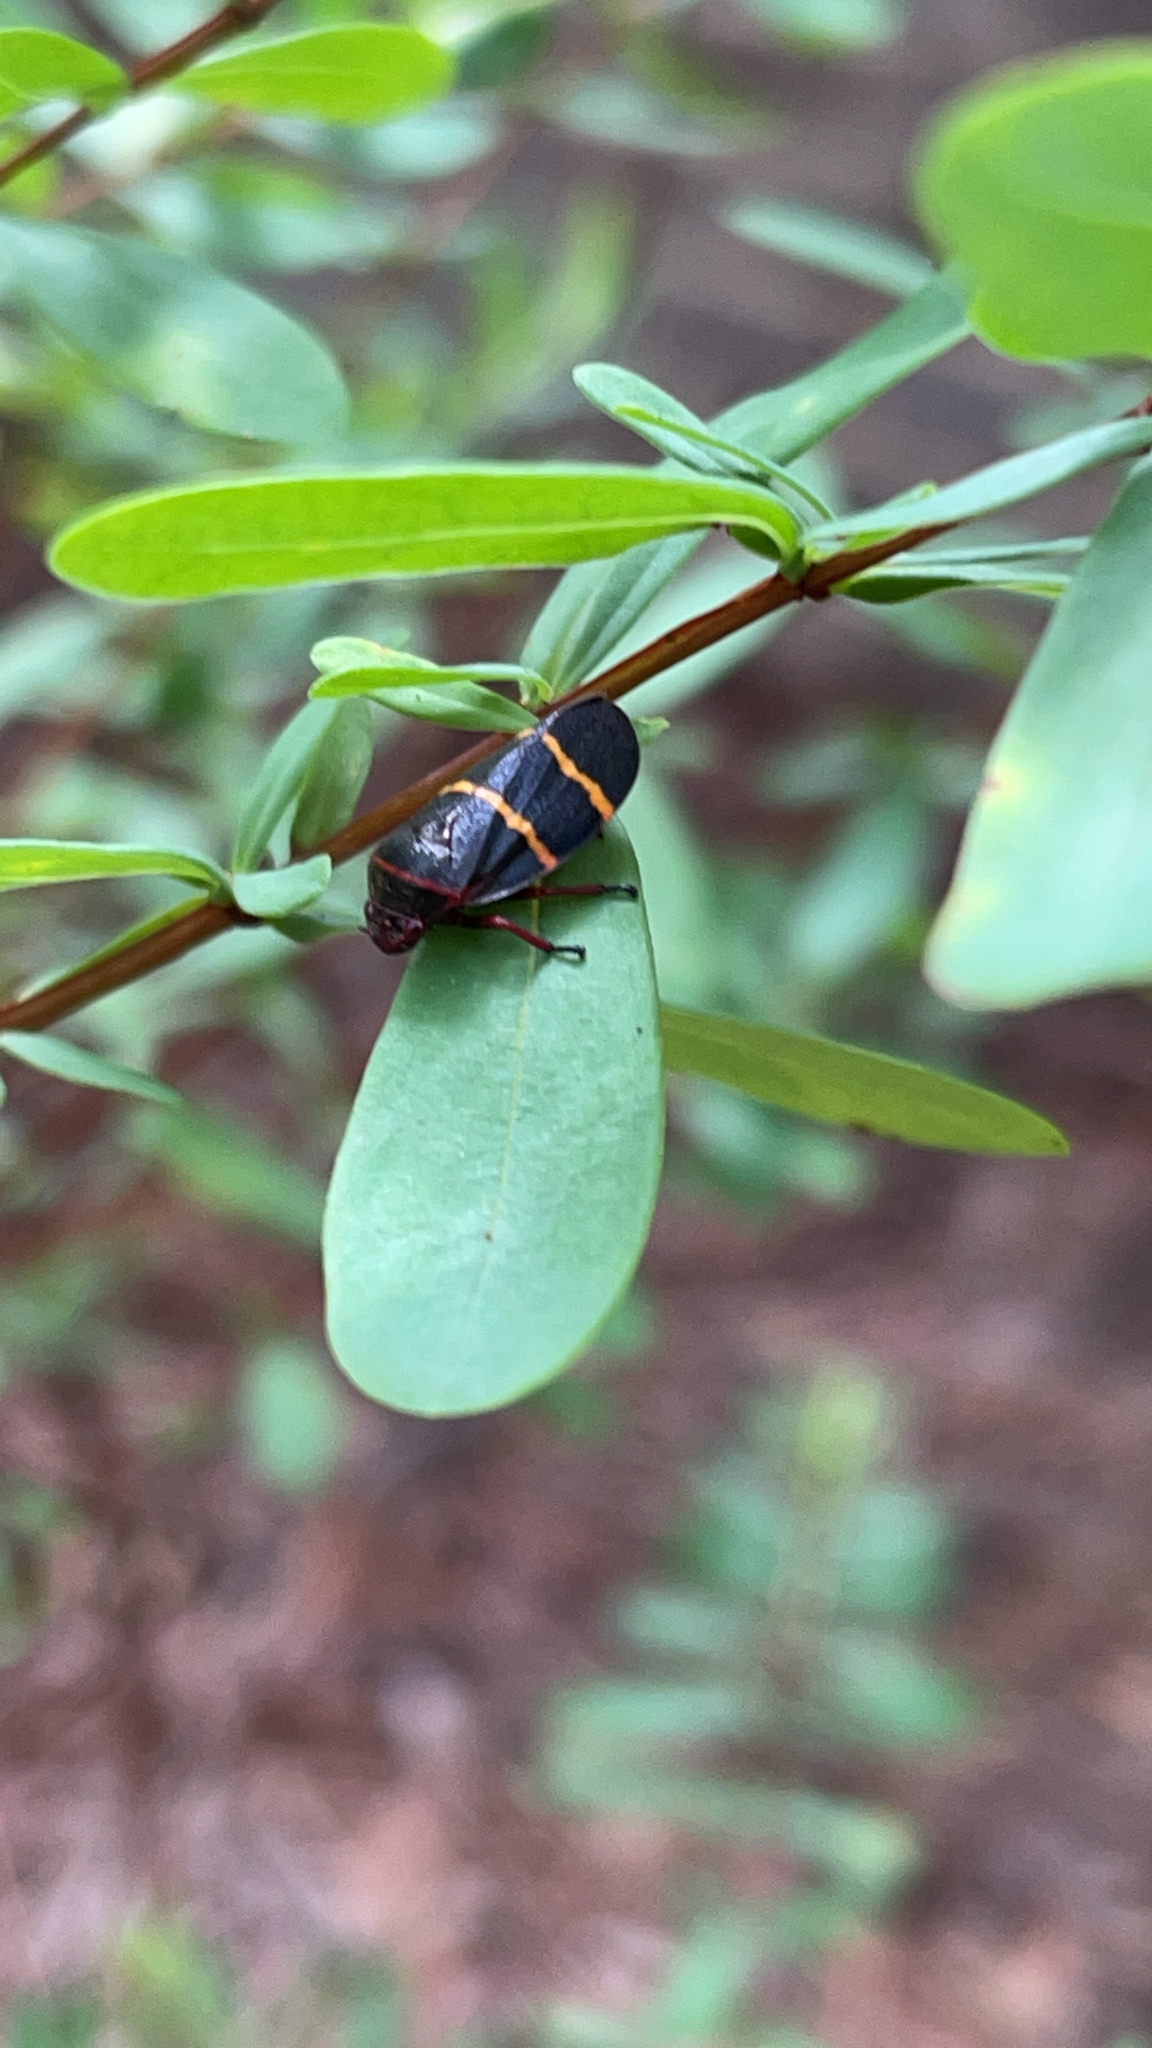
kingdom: Animalia
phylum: Arthropoda
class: Insecta
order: Hemiptera
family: Cercopidae
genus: Prosapia
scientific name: Prosapia bicincta
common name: Twolined spittlebug
